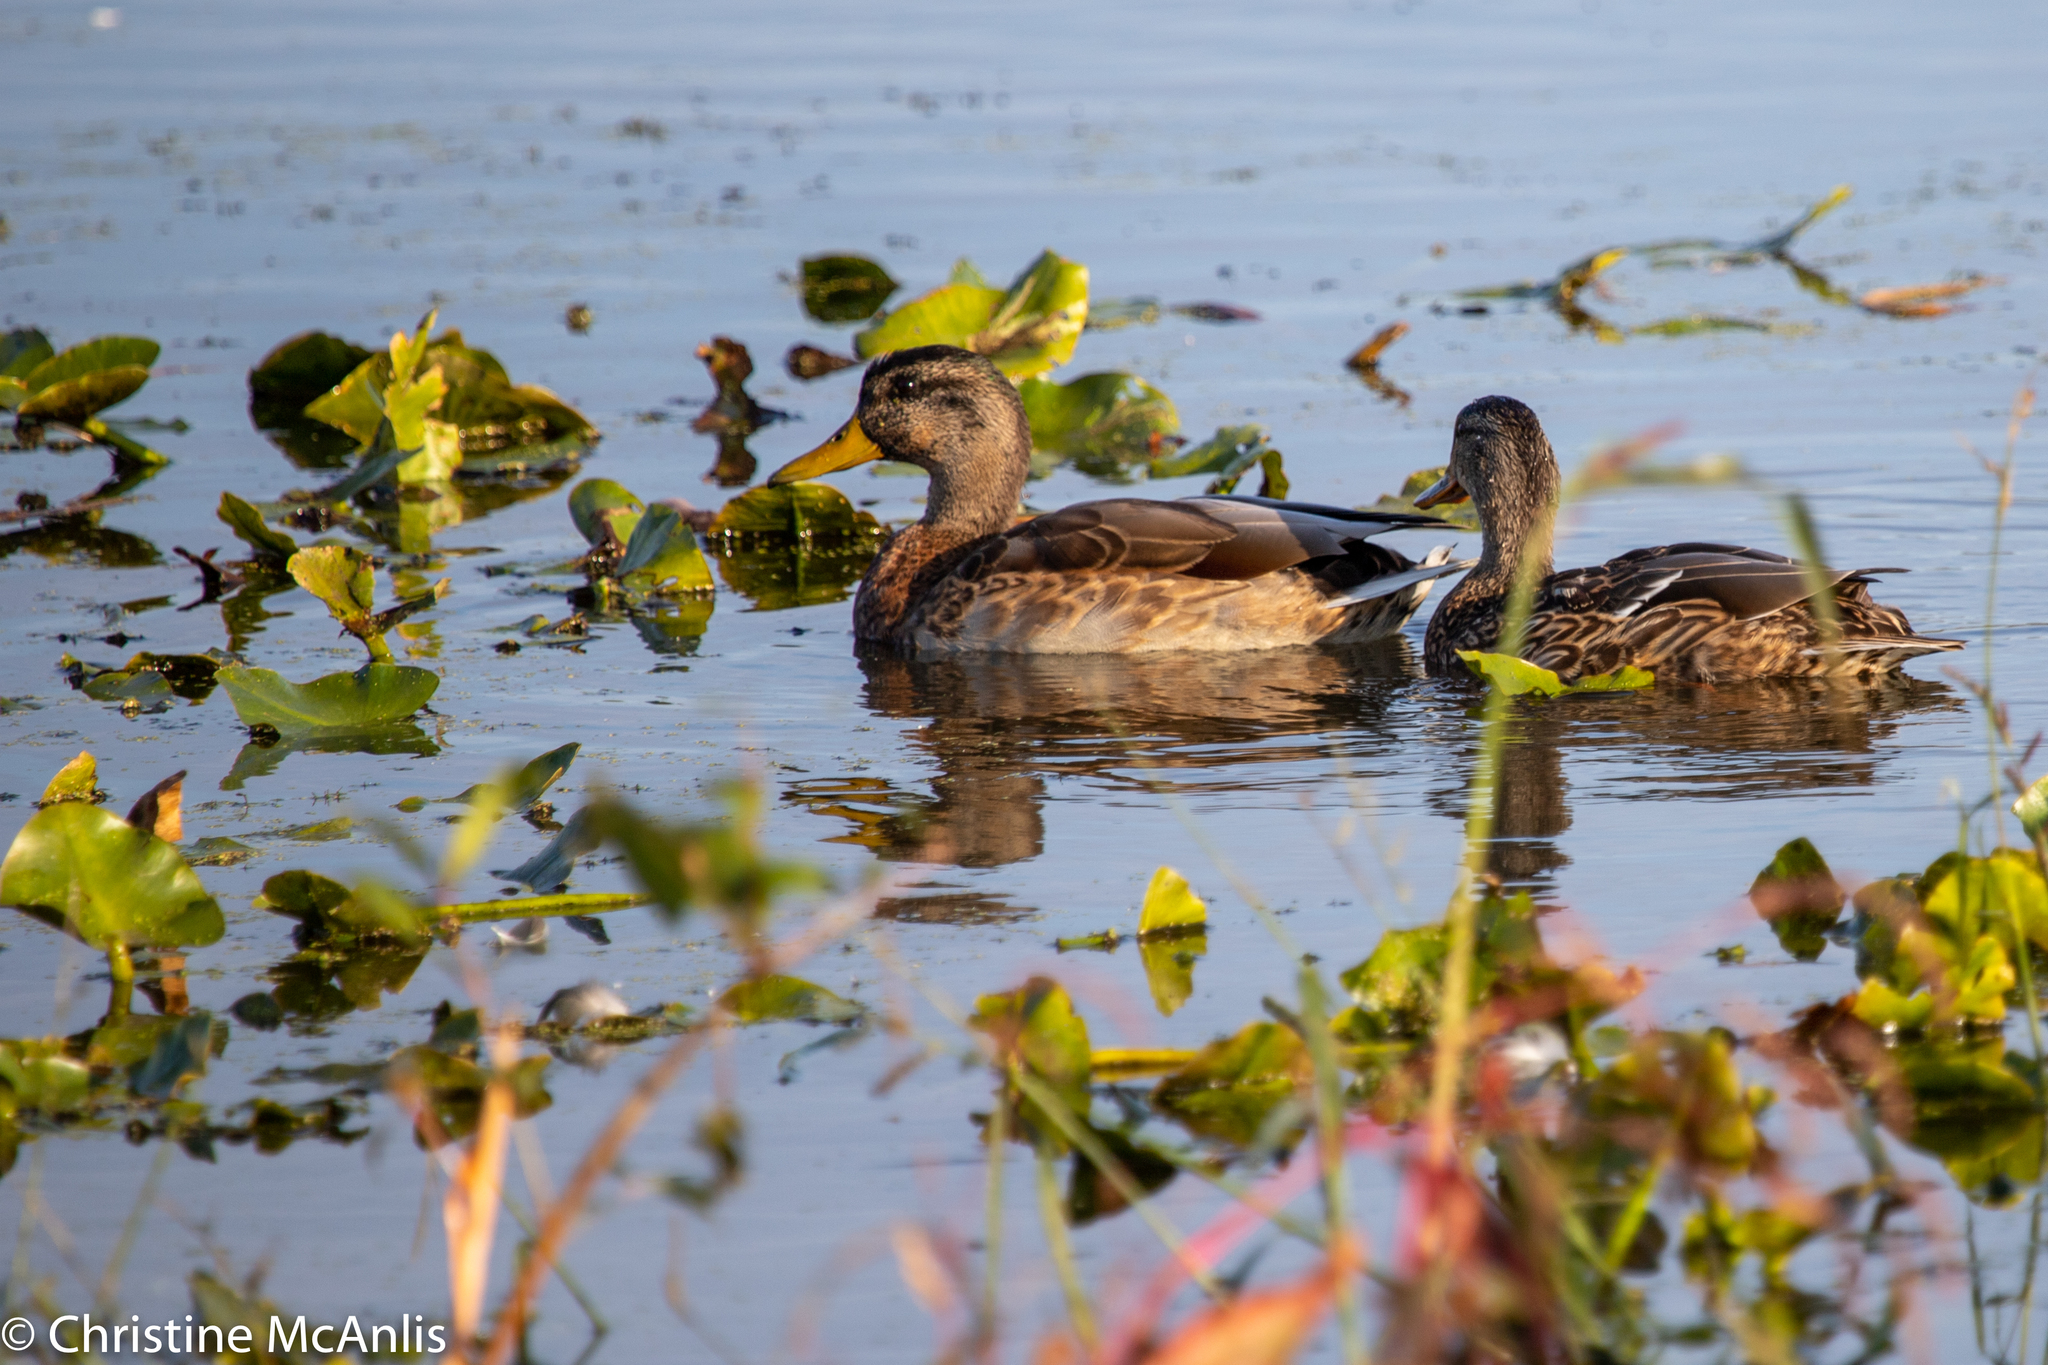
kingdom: Animalia
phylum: Chordata
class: Aves
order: Anseriformes
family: Anatidae
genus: Anas
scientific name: Anas platyrhynchos
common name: Mallard
